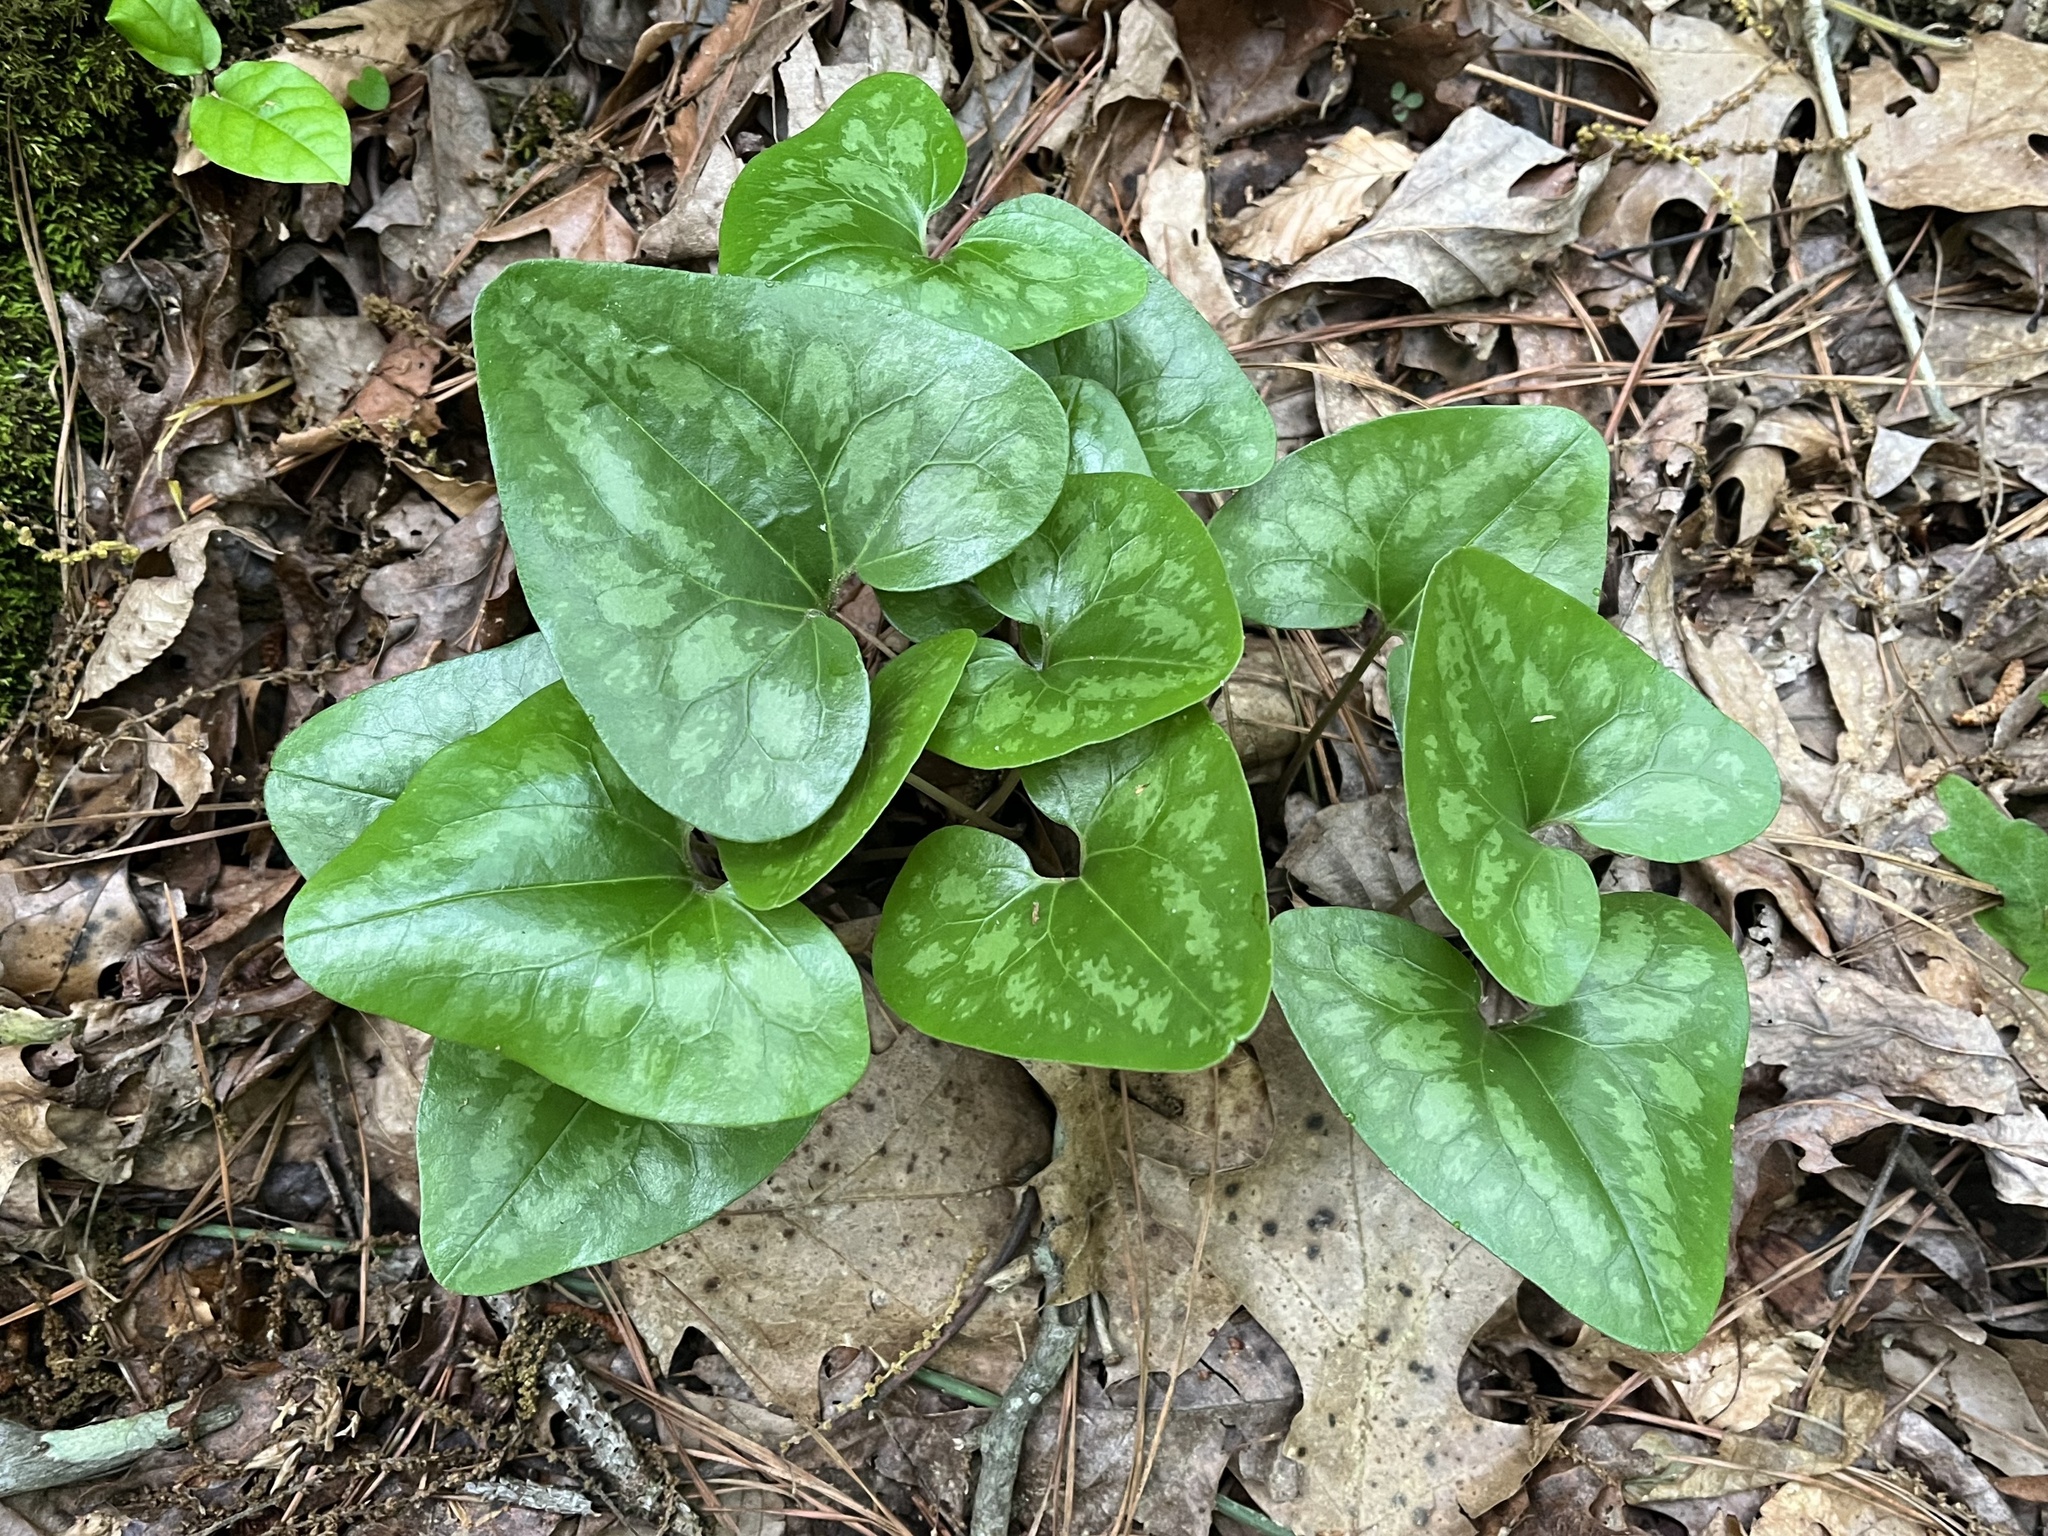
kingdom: Plantae
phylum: Tracheophyta
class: Magnoliopsida
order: Piperales
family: Aristolochiaceae
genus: Hexastylis
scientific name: Hexastylis arifolia
